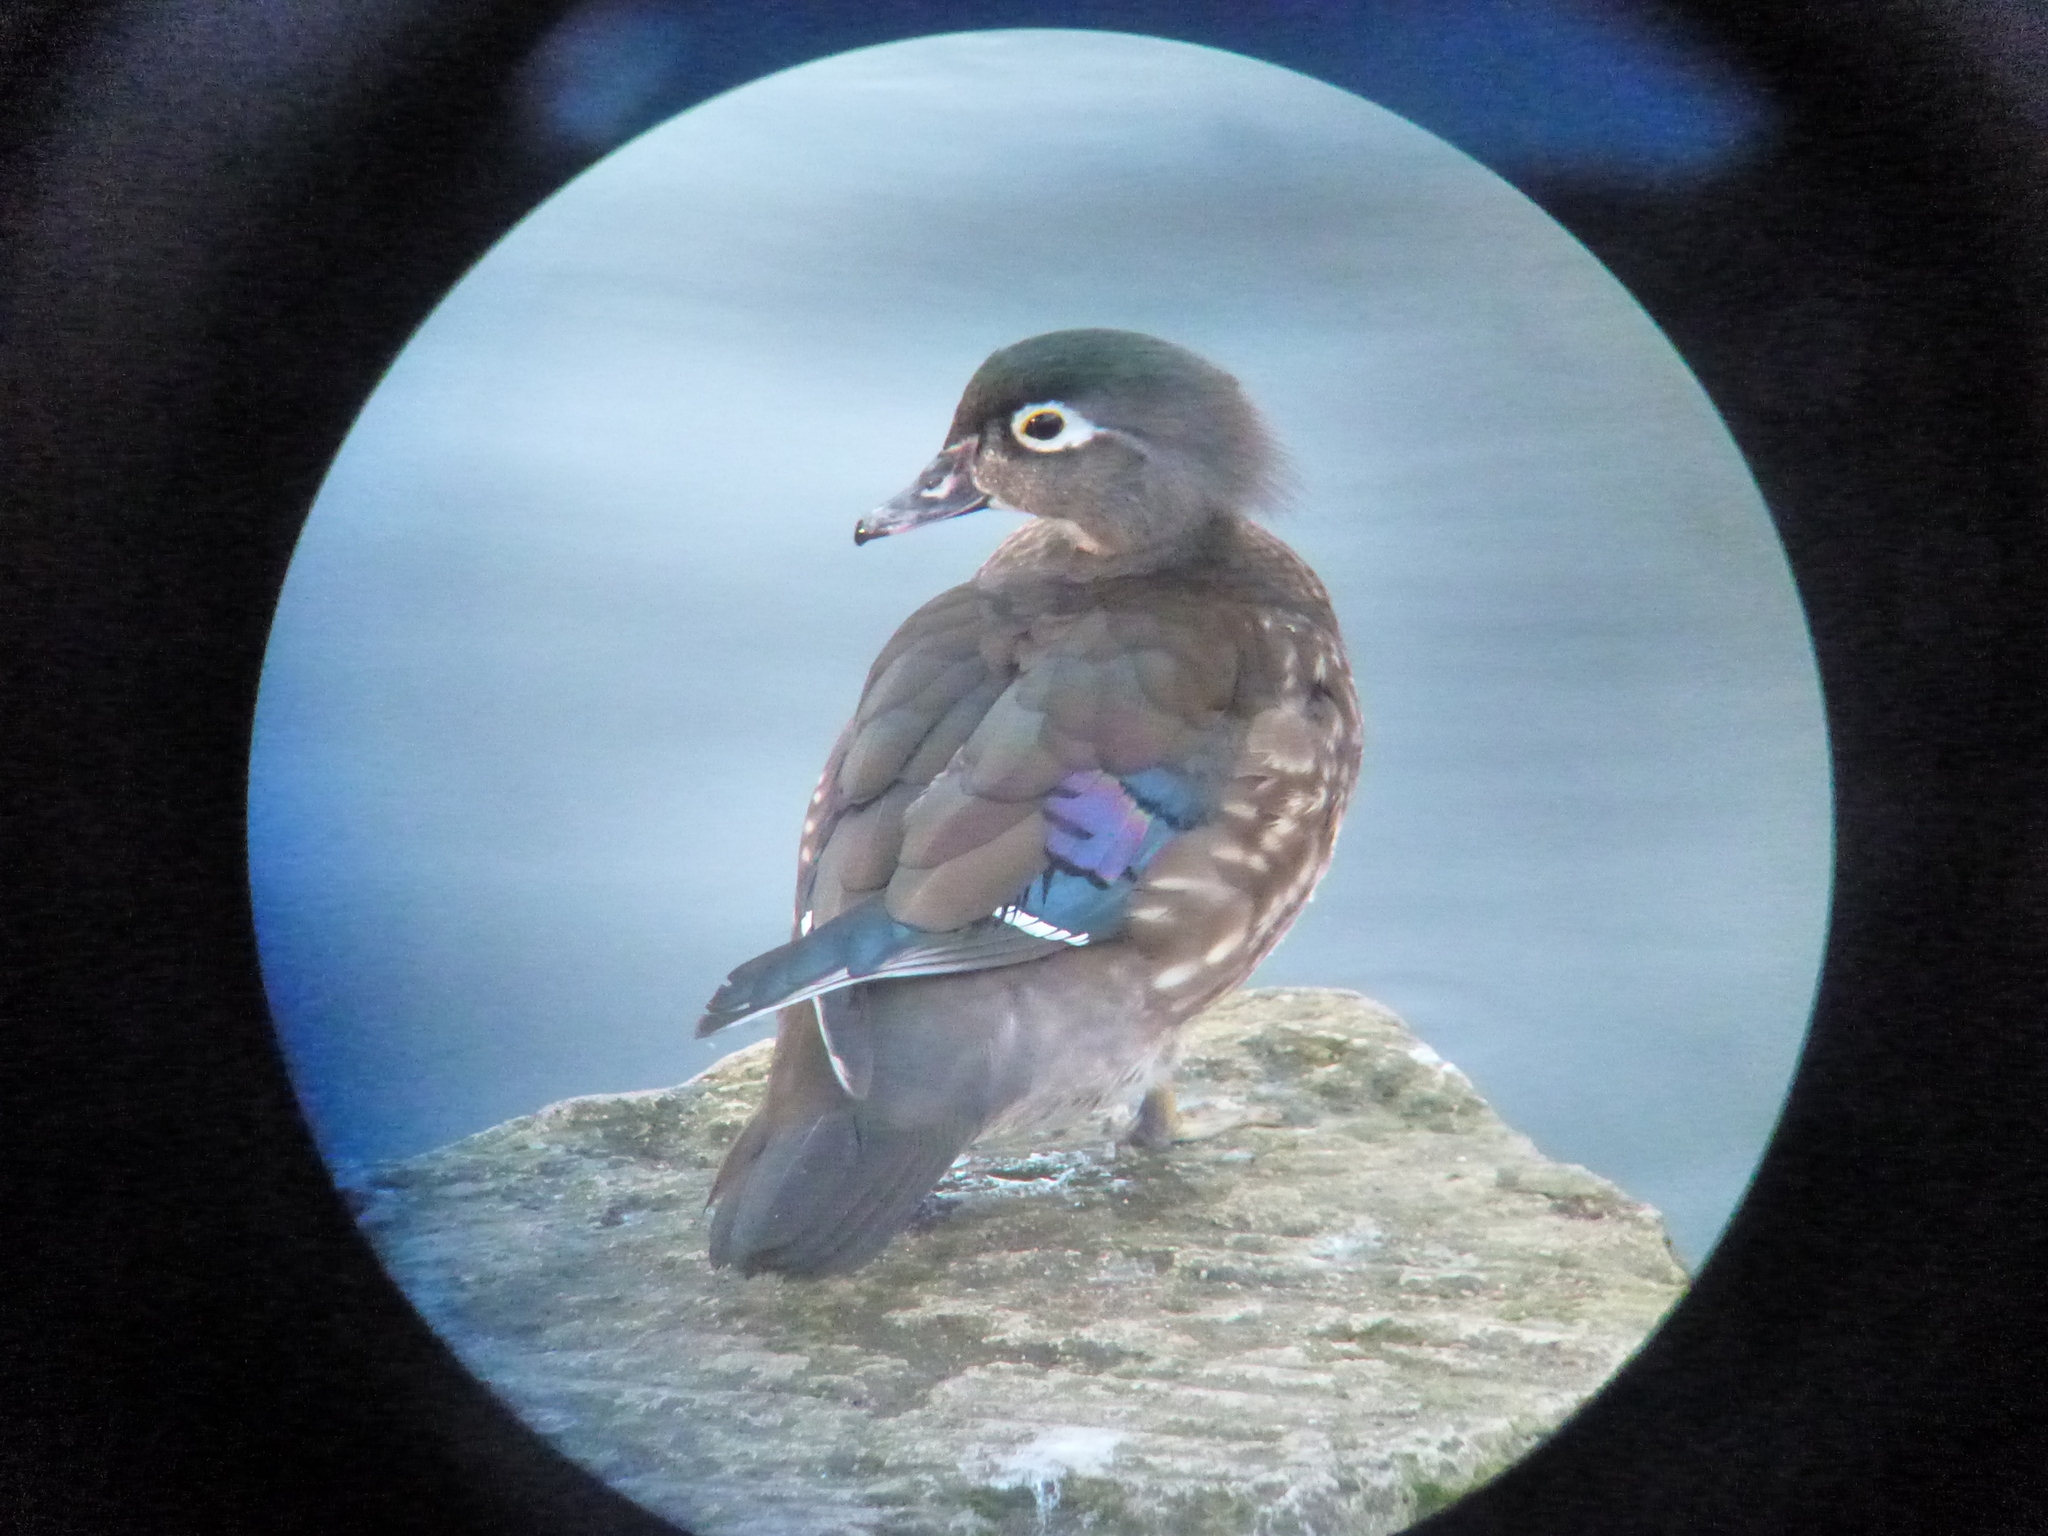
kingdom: Animalia
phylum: Chordata
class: Aves
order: Anseriformes
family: Anatidae
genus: Aix
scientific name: Aix sponsa
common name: Wood duck
